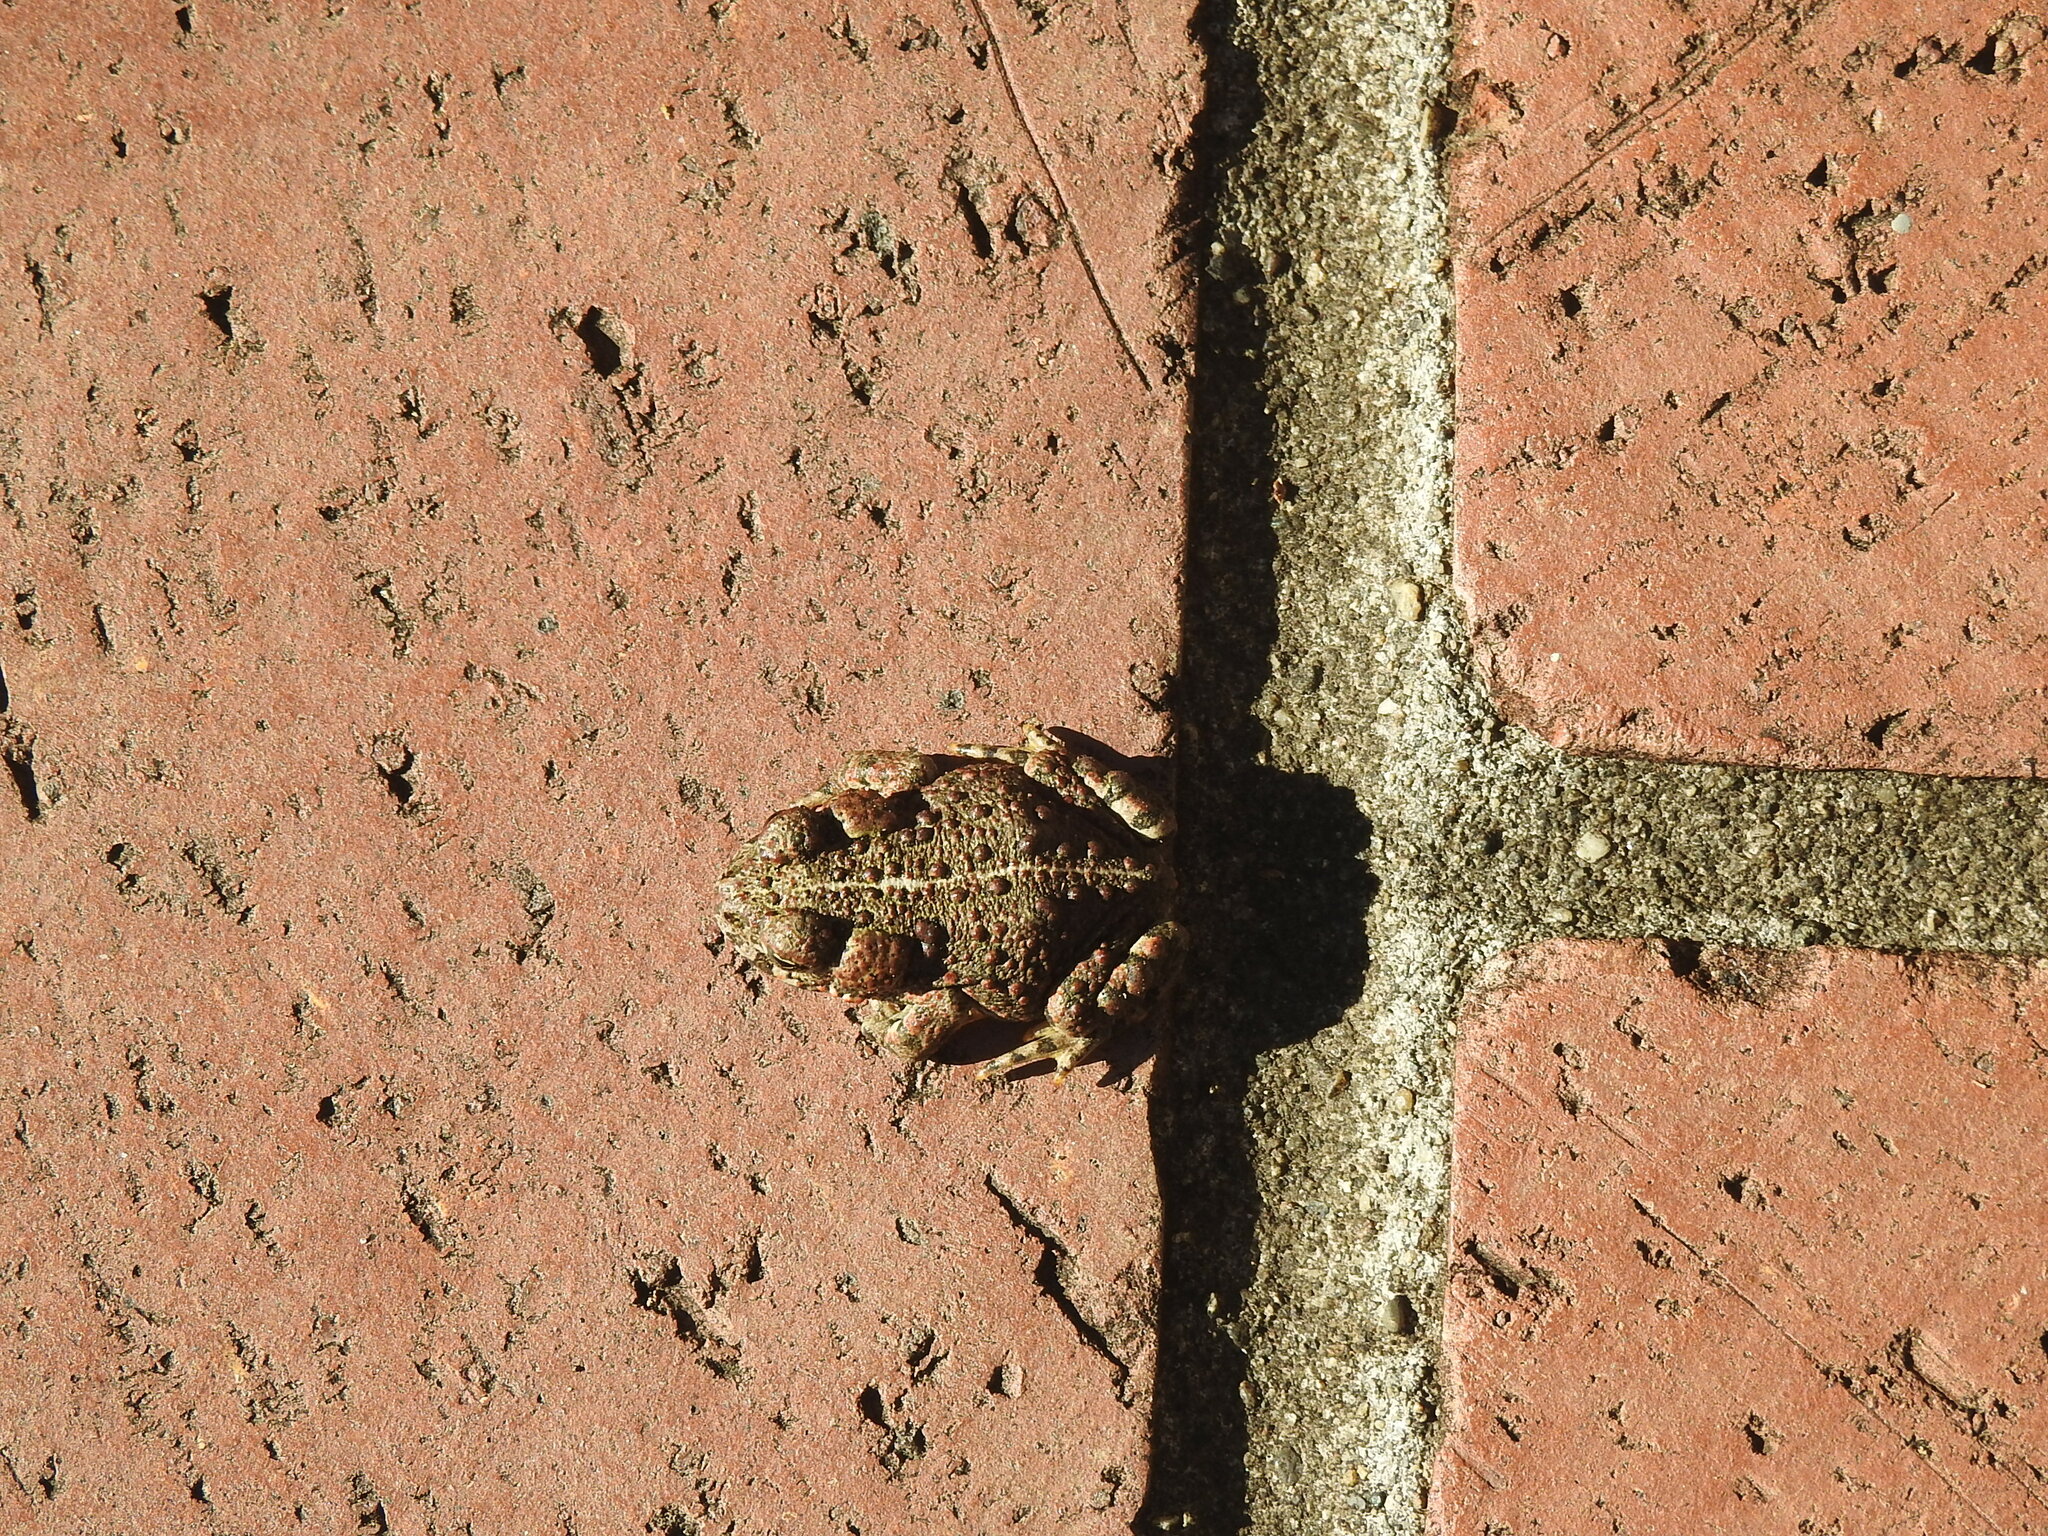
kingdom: Animalia
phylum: Chordata
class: Amphibia
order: Anura
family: Bufonidae
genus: Anaxyrus
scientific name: Anaxyrus boreas
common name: Western toad
